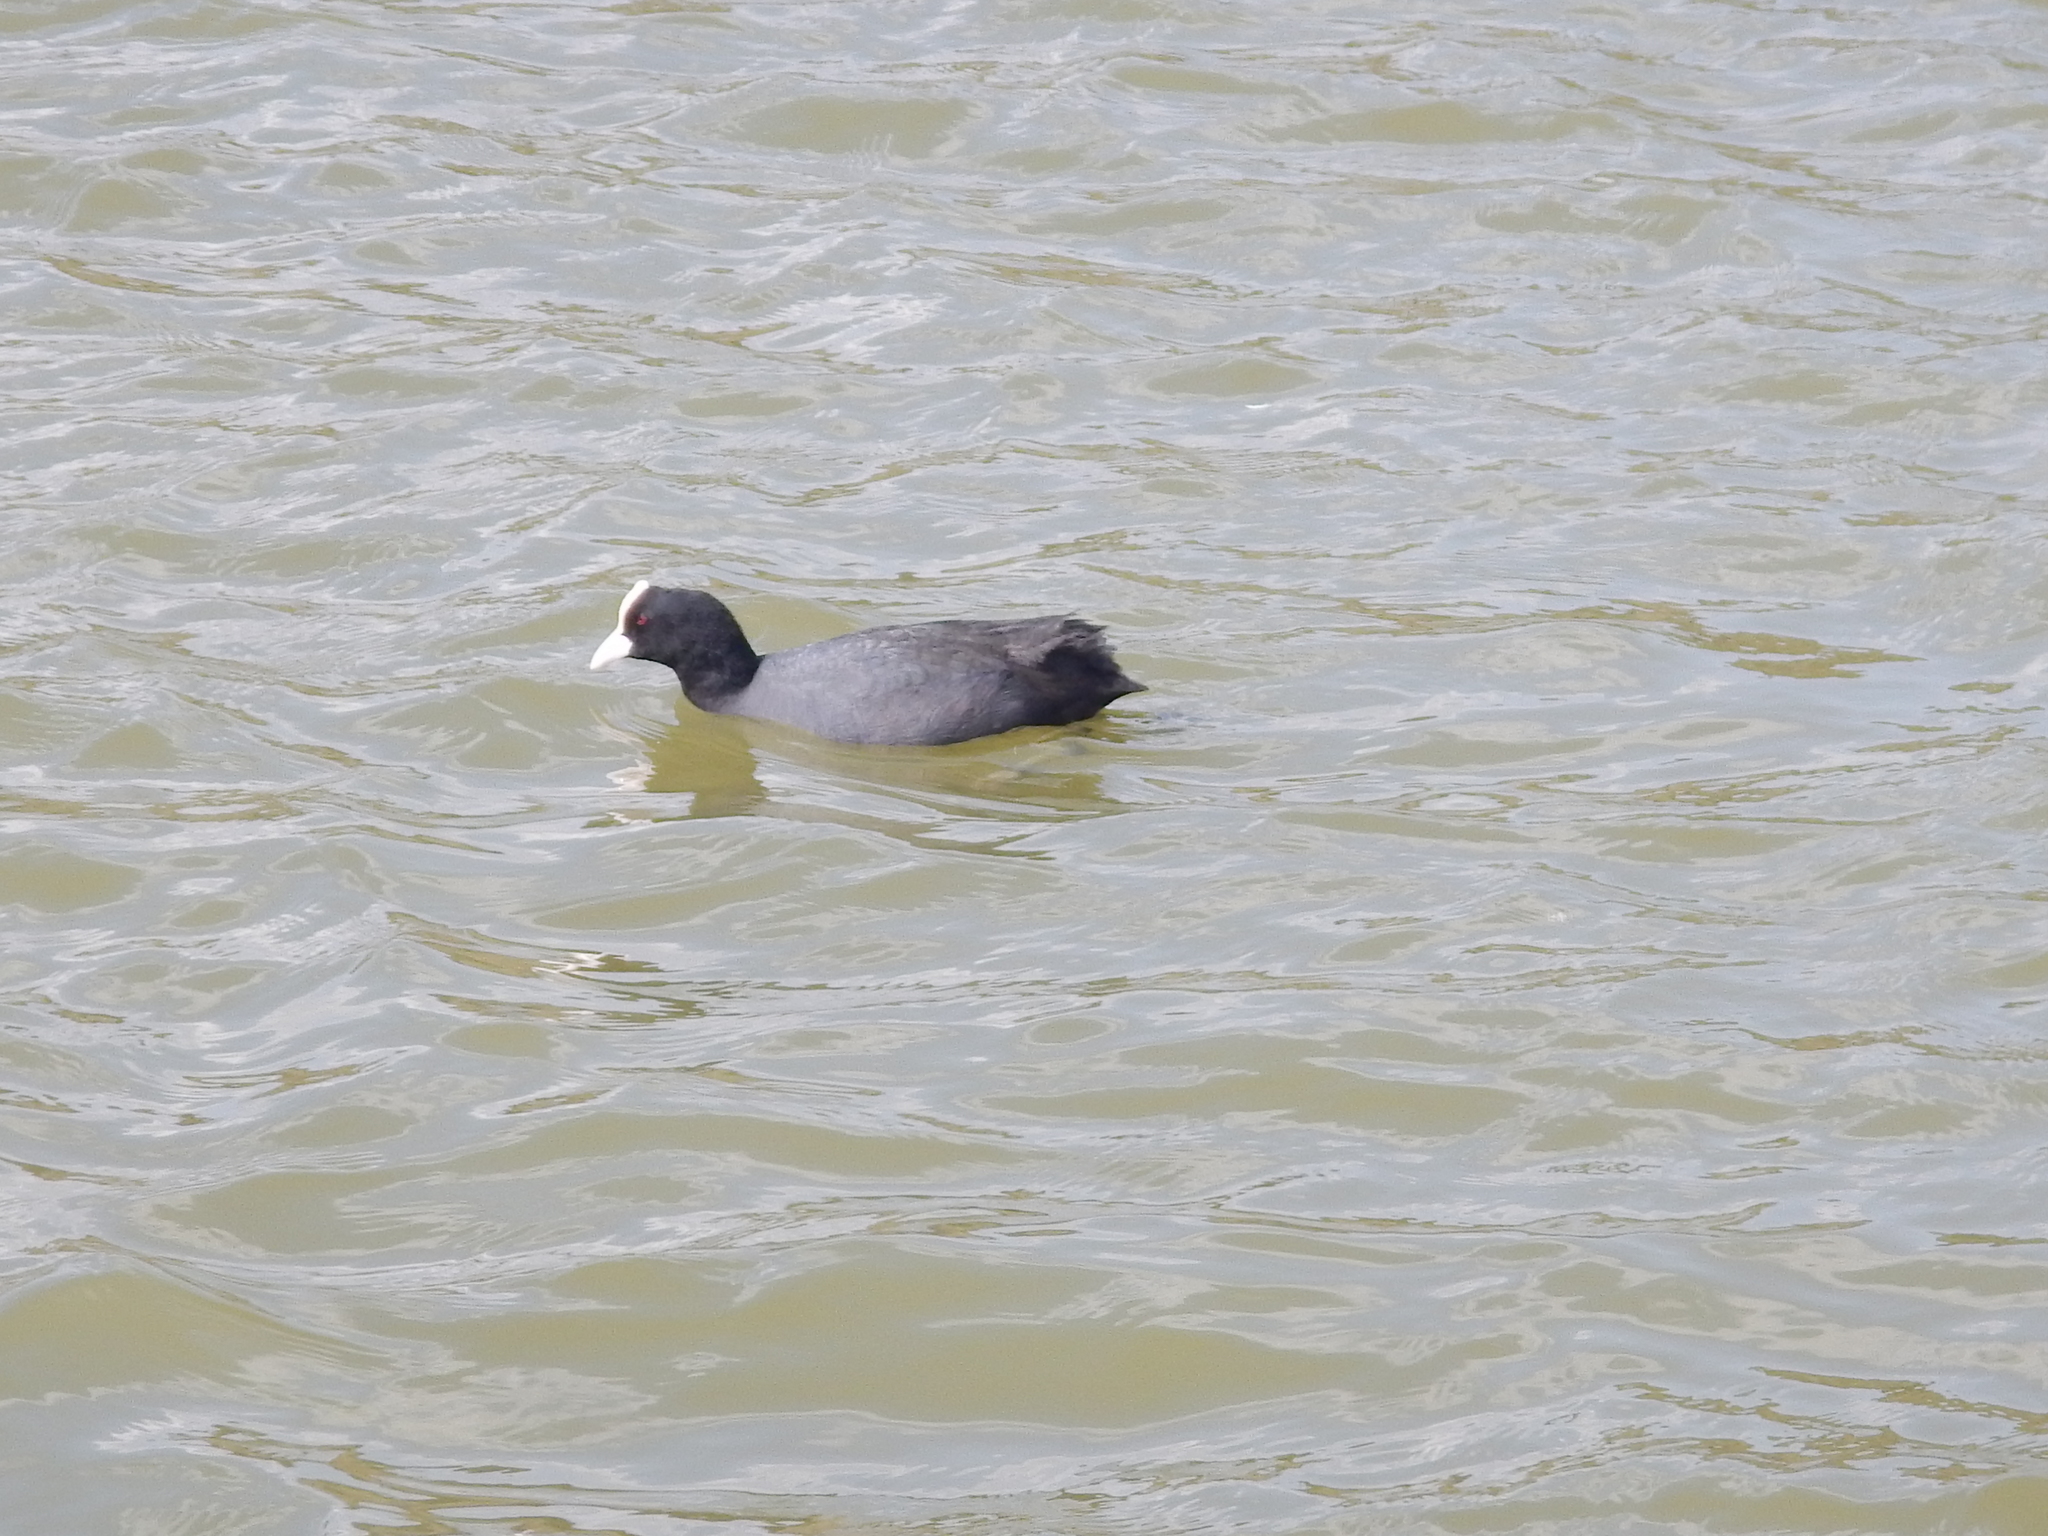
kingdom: Animalia
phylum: Chordata
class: Aves
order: Gruiformes
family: Rallidae
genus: Fulica
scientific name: Fulica atra
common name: Eurasian coot
